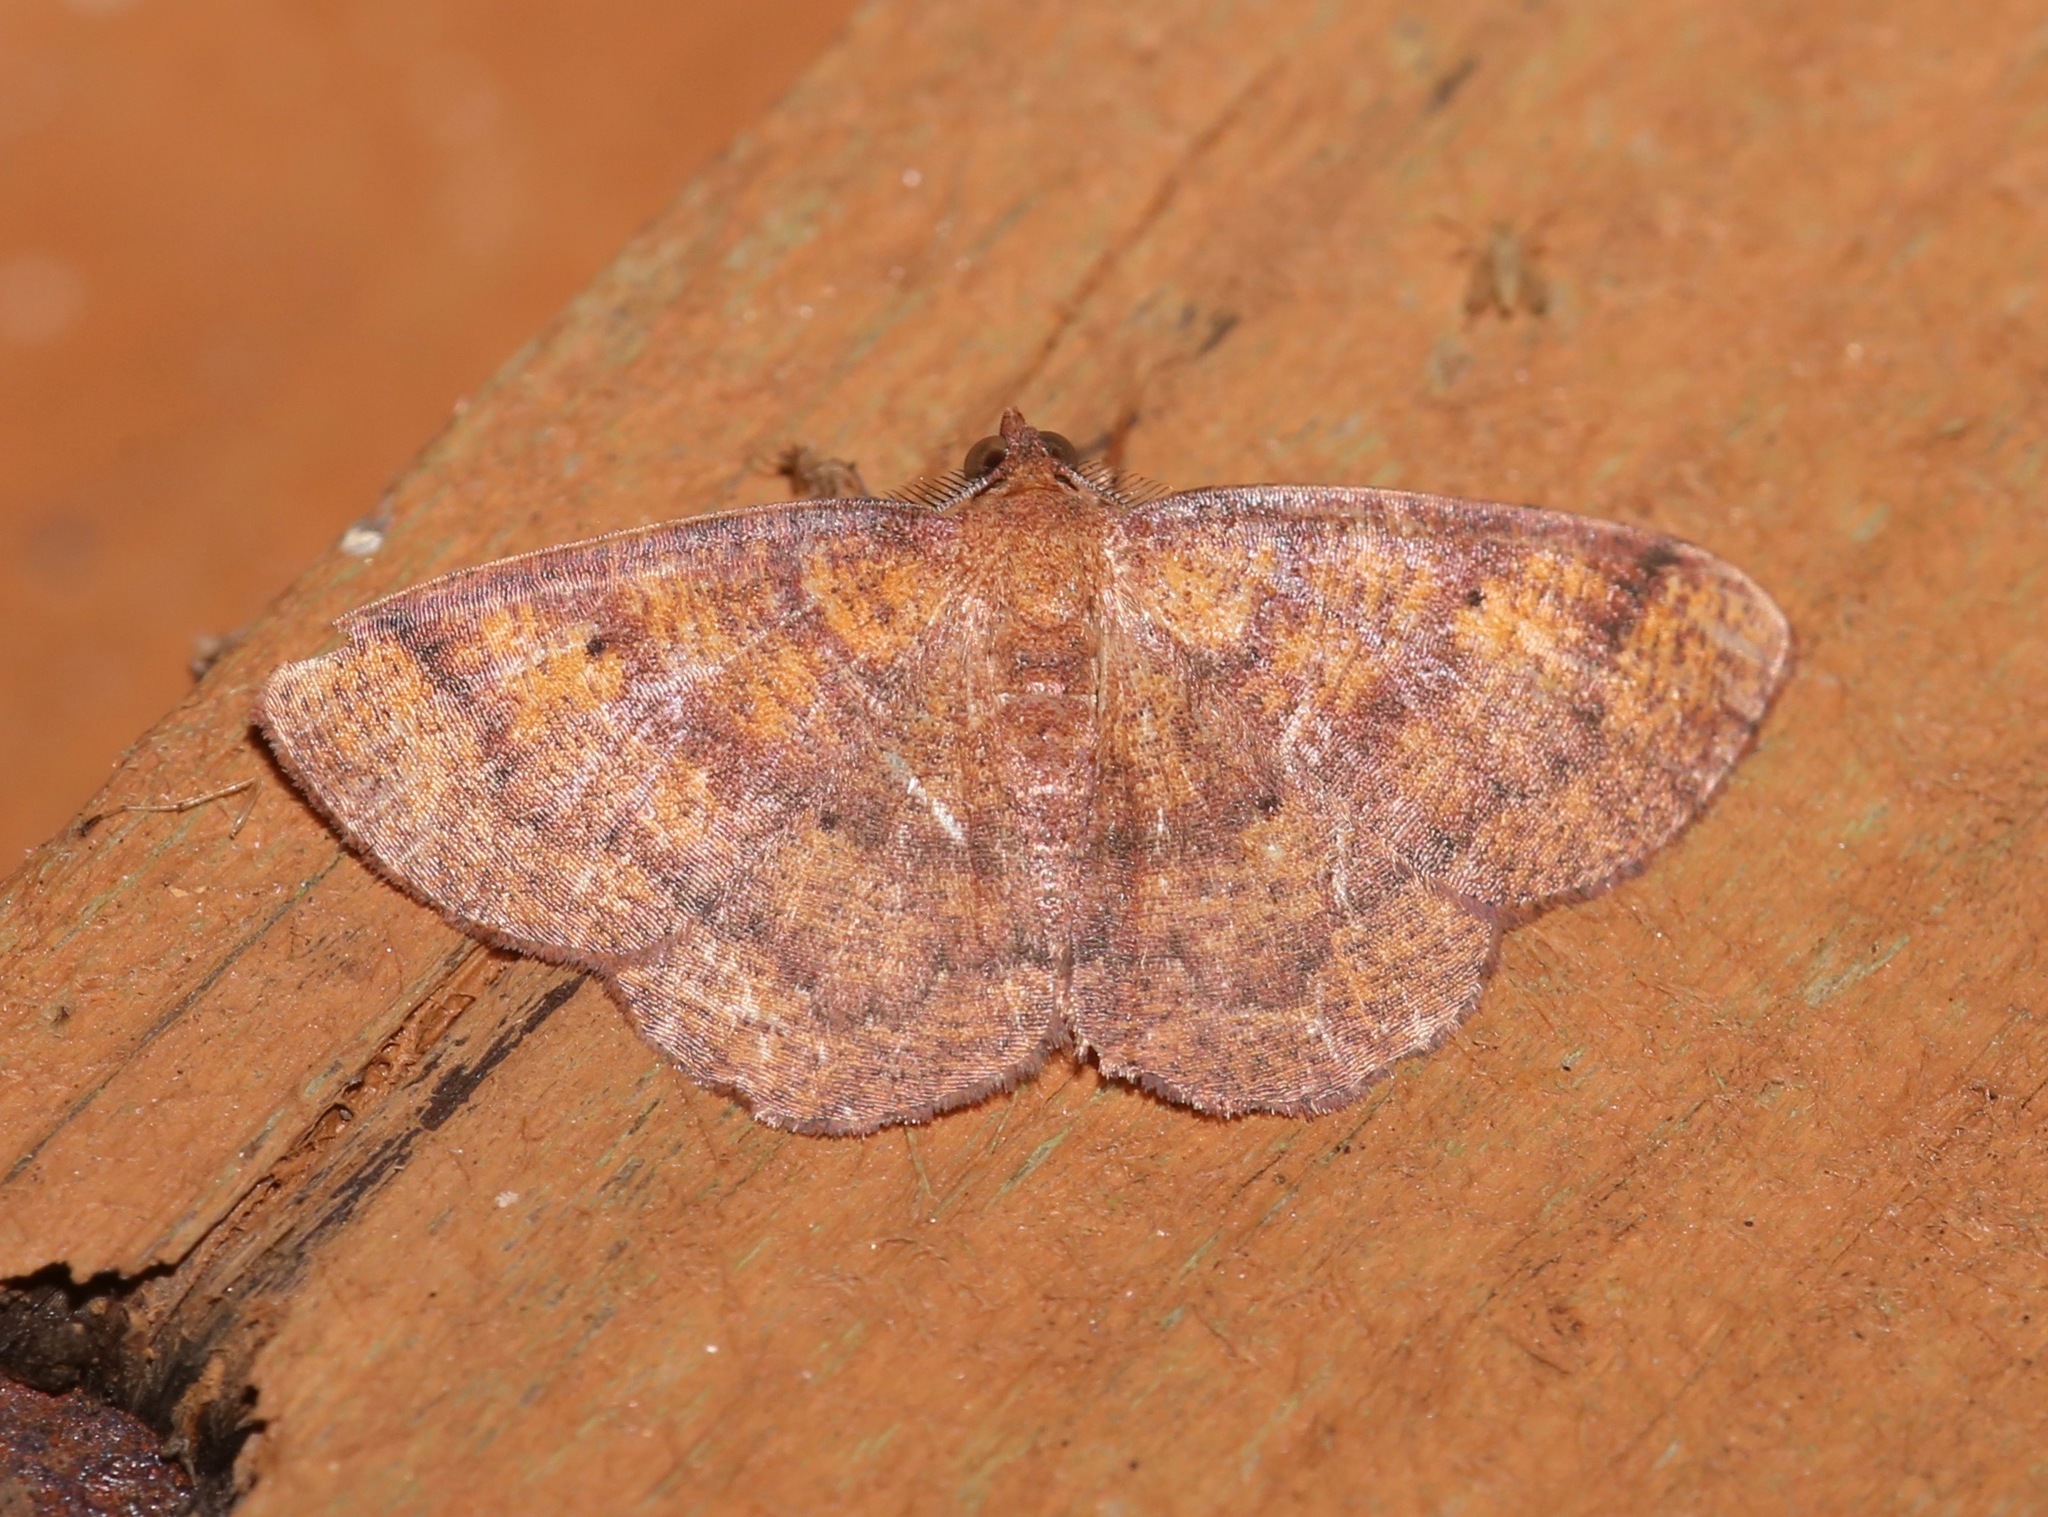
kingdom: Animalia
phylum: Arthropoda
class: Insecta
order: Lepidoptera
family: Geometridae
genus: Ilexia
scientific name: Ilexia intractata
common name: Black-dotted ruddy moth
